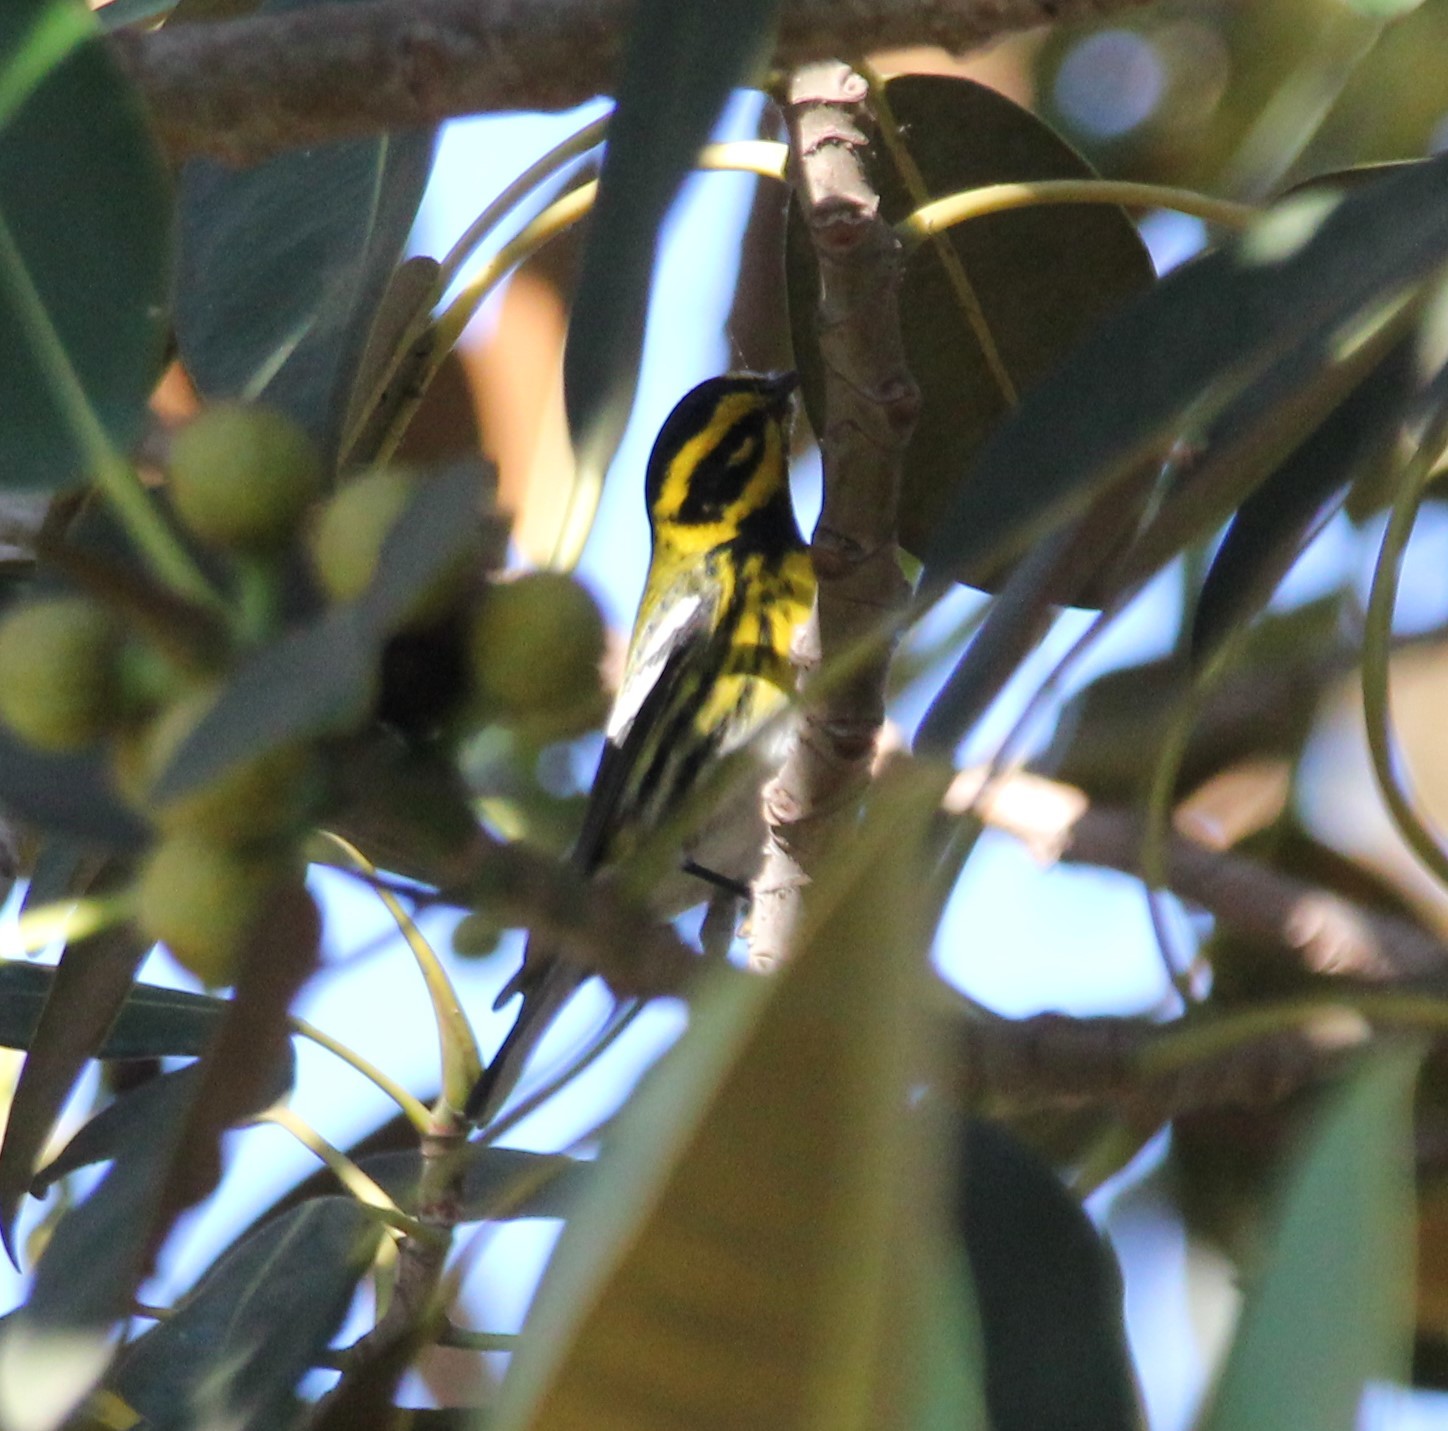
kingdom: Animalia
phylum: Chordata
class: Aves
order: Passeriformes
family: Parulidae
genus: Setophaga
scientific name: Setophaga townsendi
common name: Townsend's warbler
